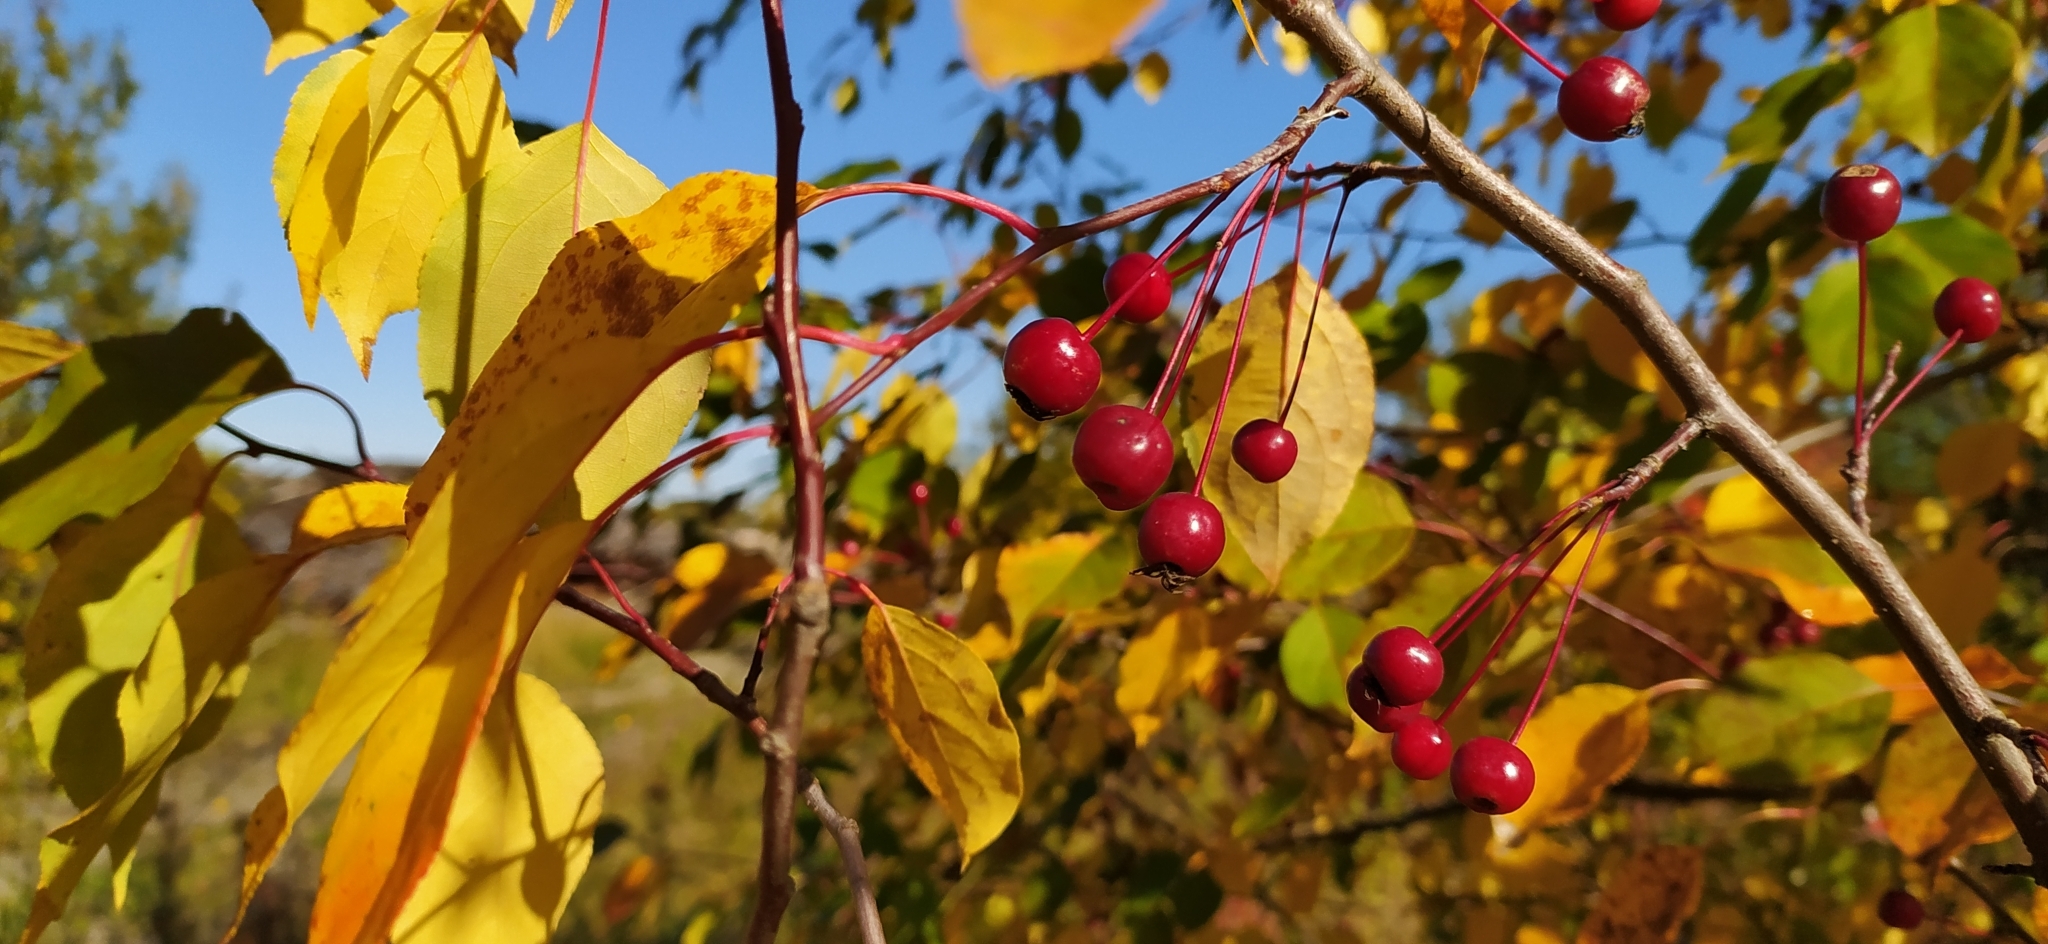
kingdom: Plantae
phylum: Tracheophyta
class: Magnoliopsida
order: Rosales
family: Rosaceae
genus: Malus
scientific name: Malus baccata
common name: Siberian crab
